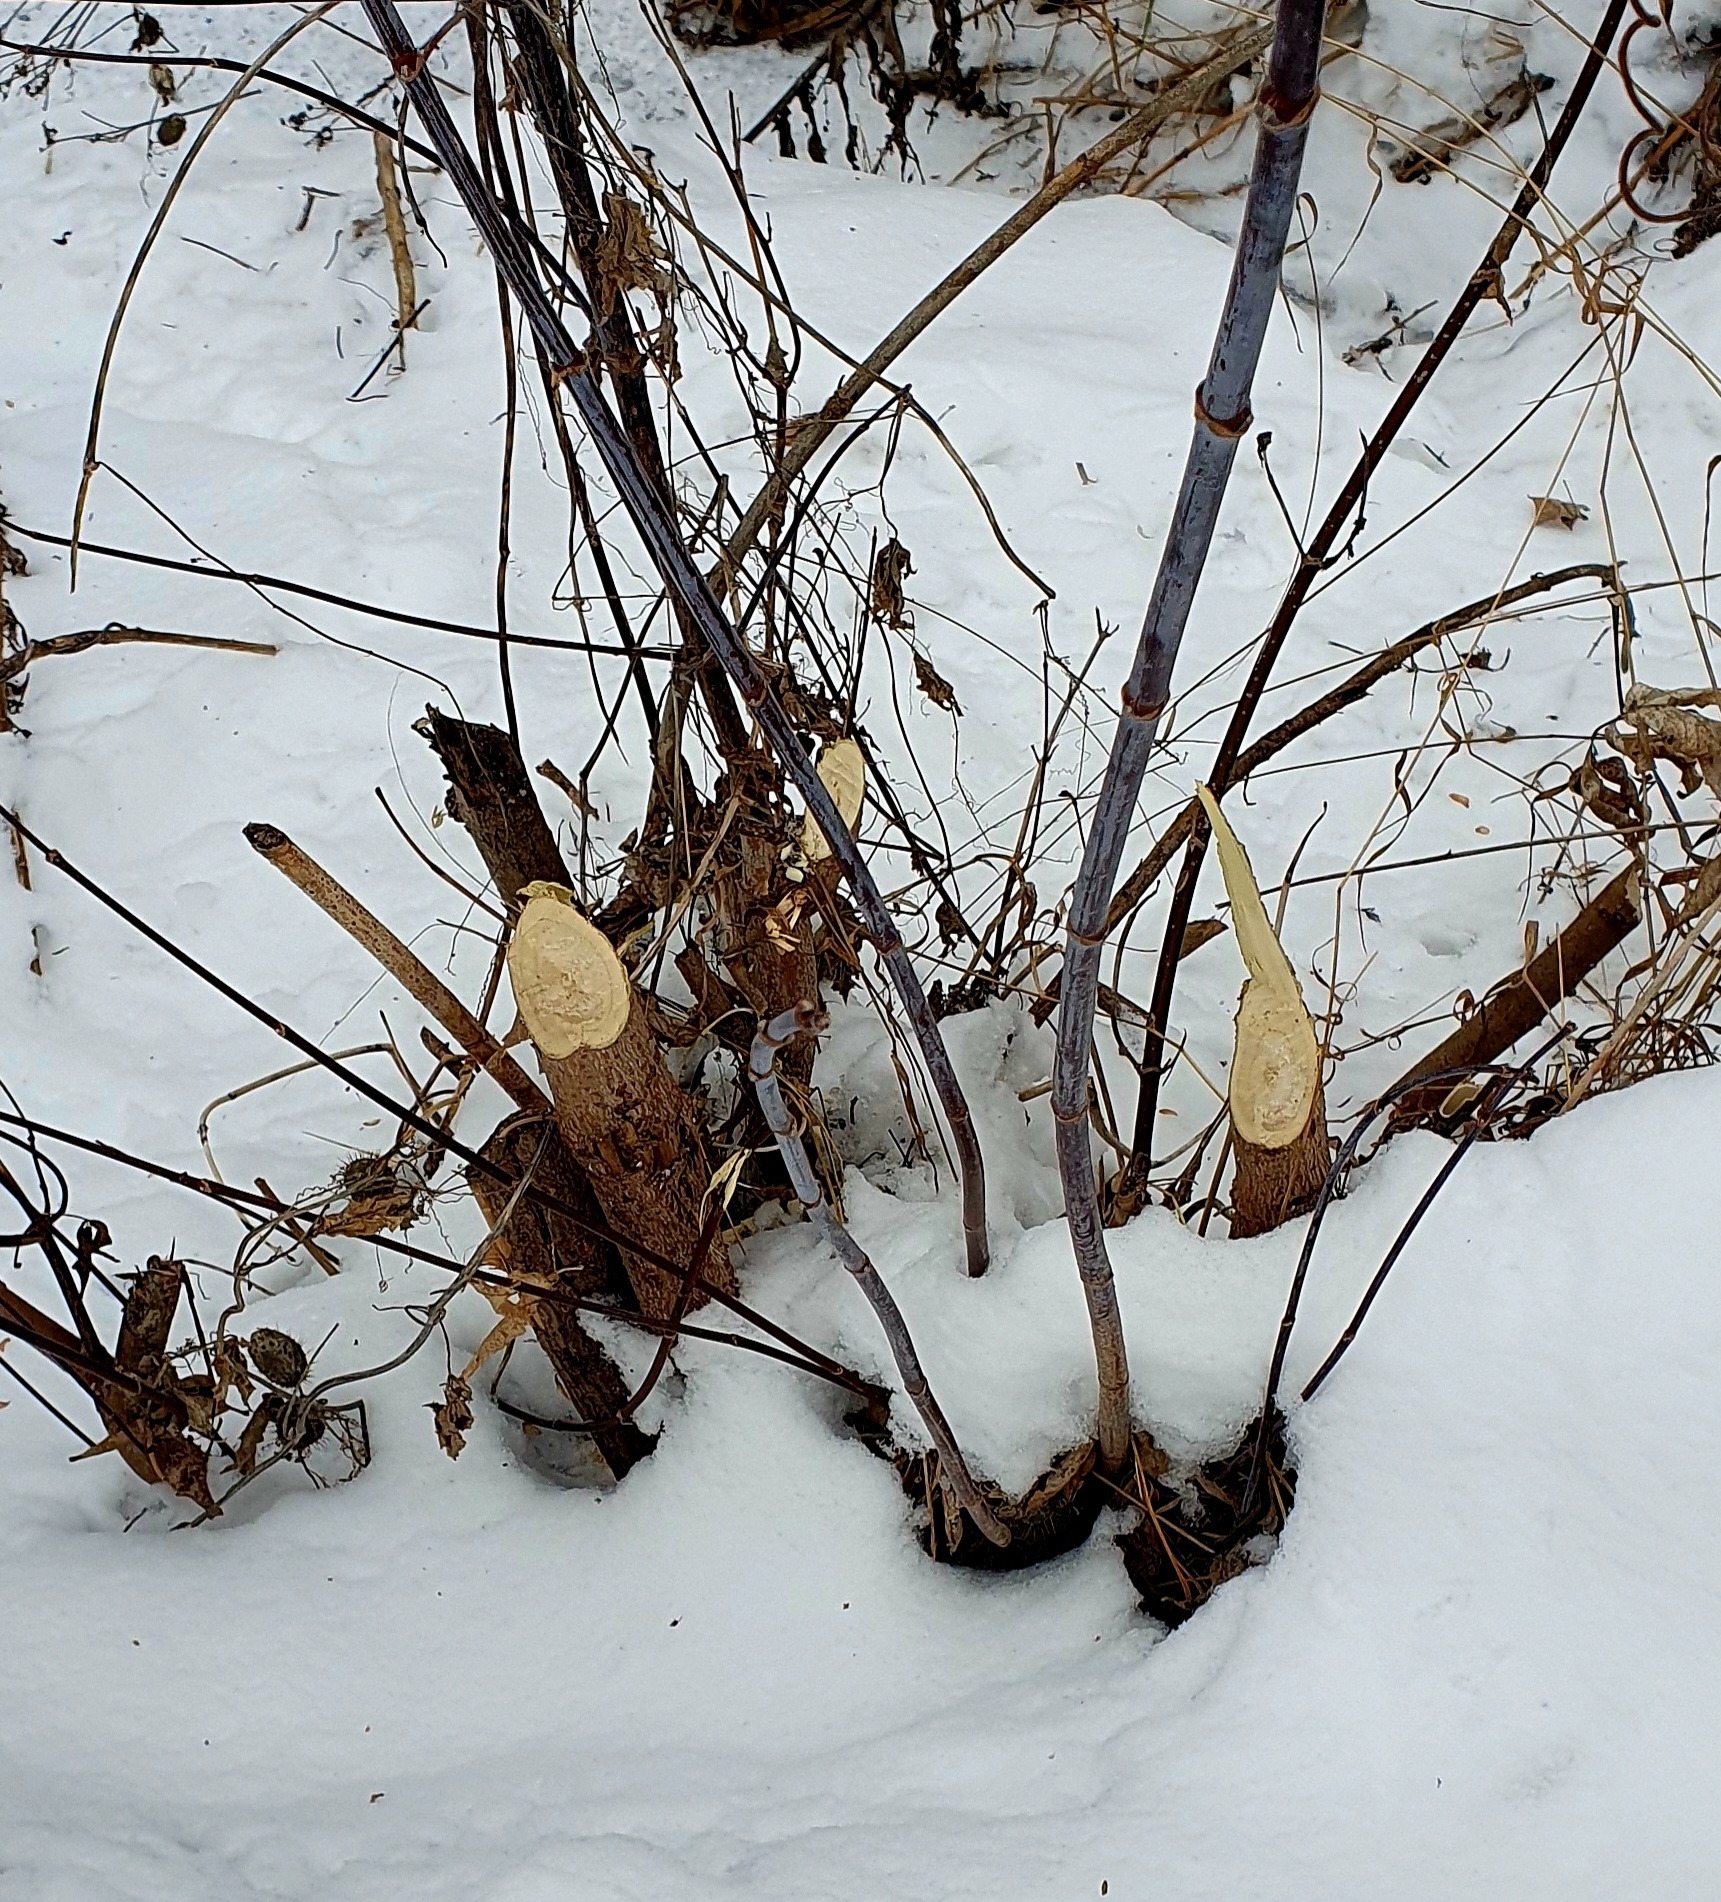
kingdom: Animalia
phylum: Chordata
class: Mammalia
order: Rodentia
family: Castoridae
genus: Castor
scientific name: Castor fiber
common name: Eurasian beaver
